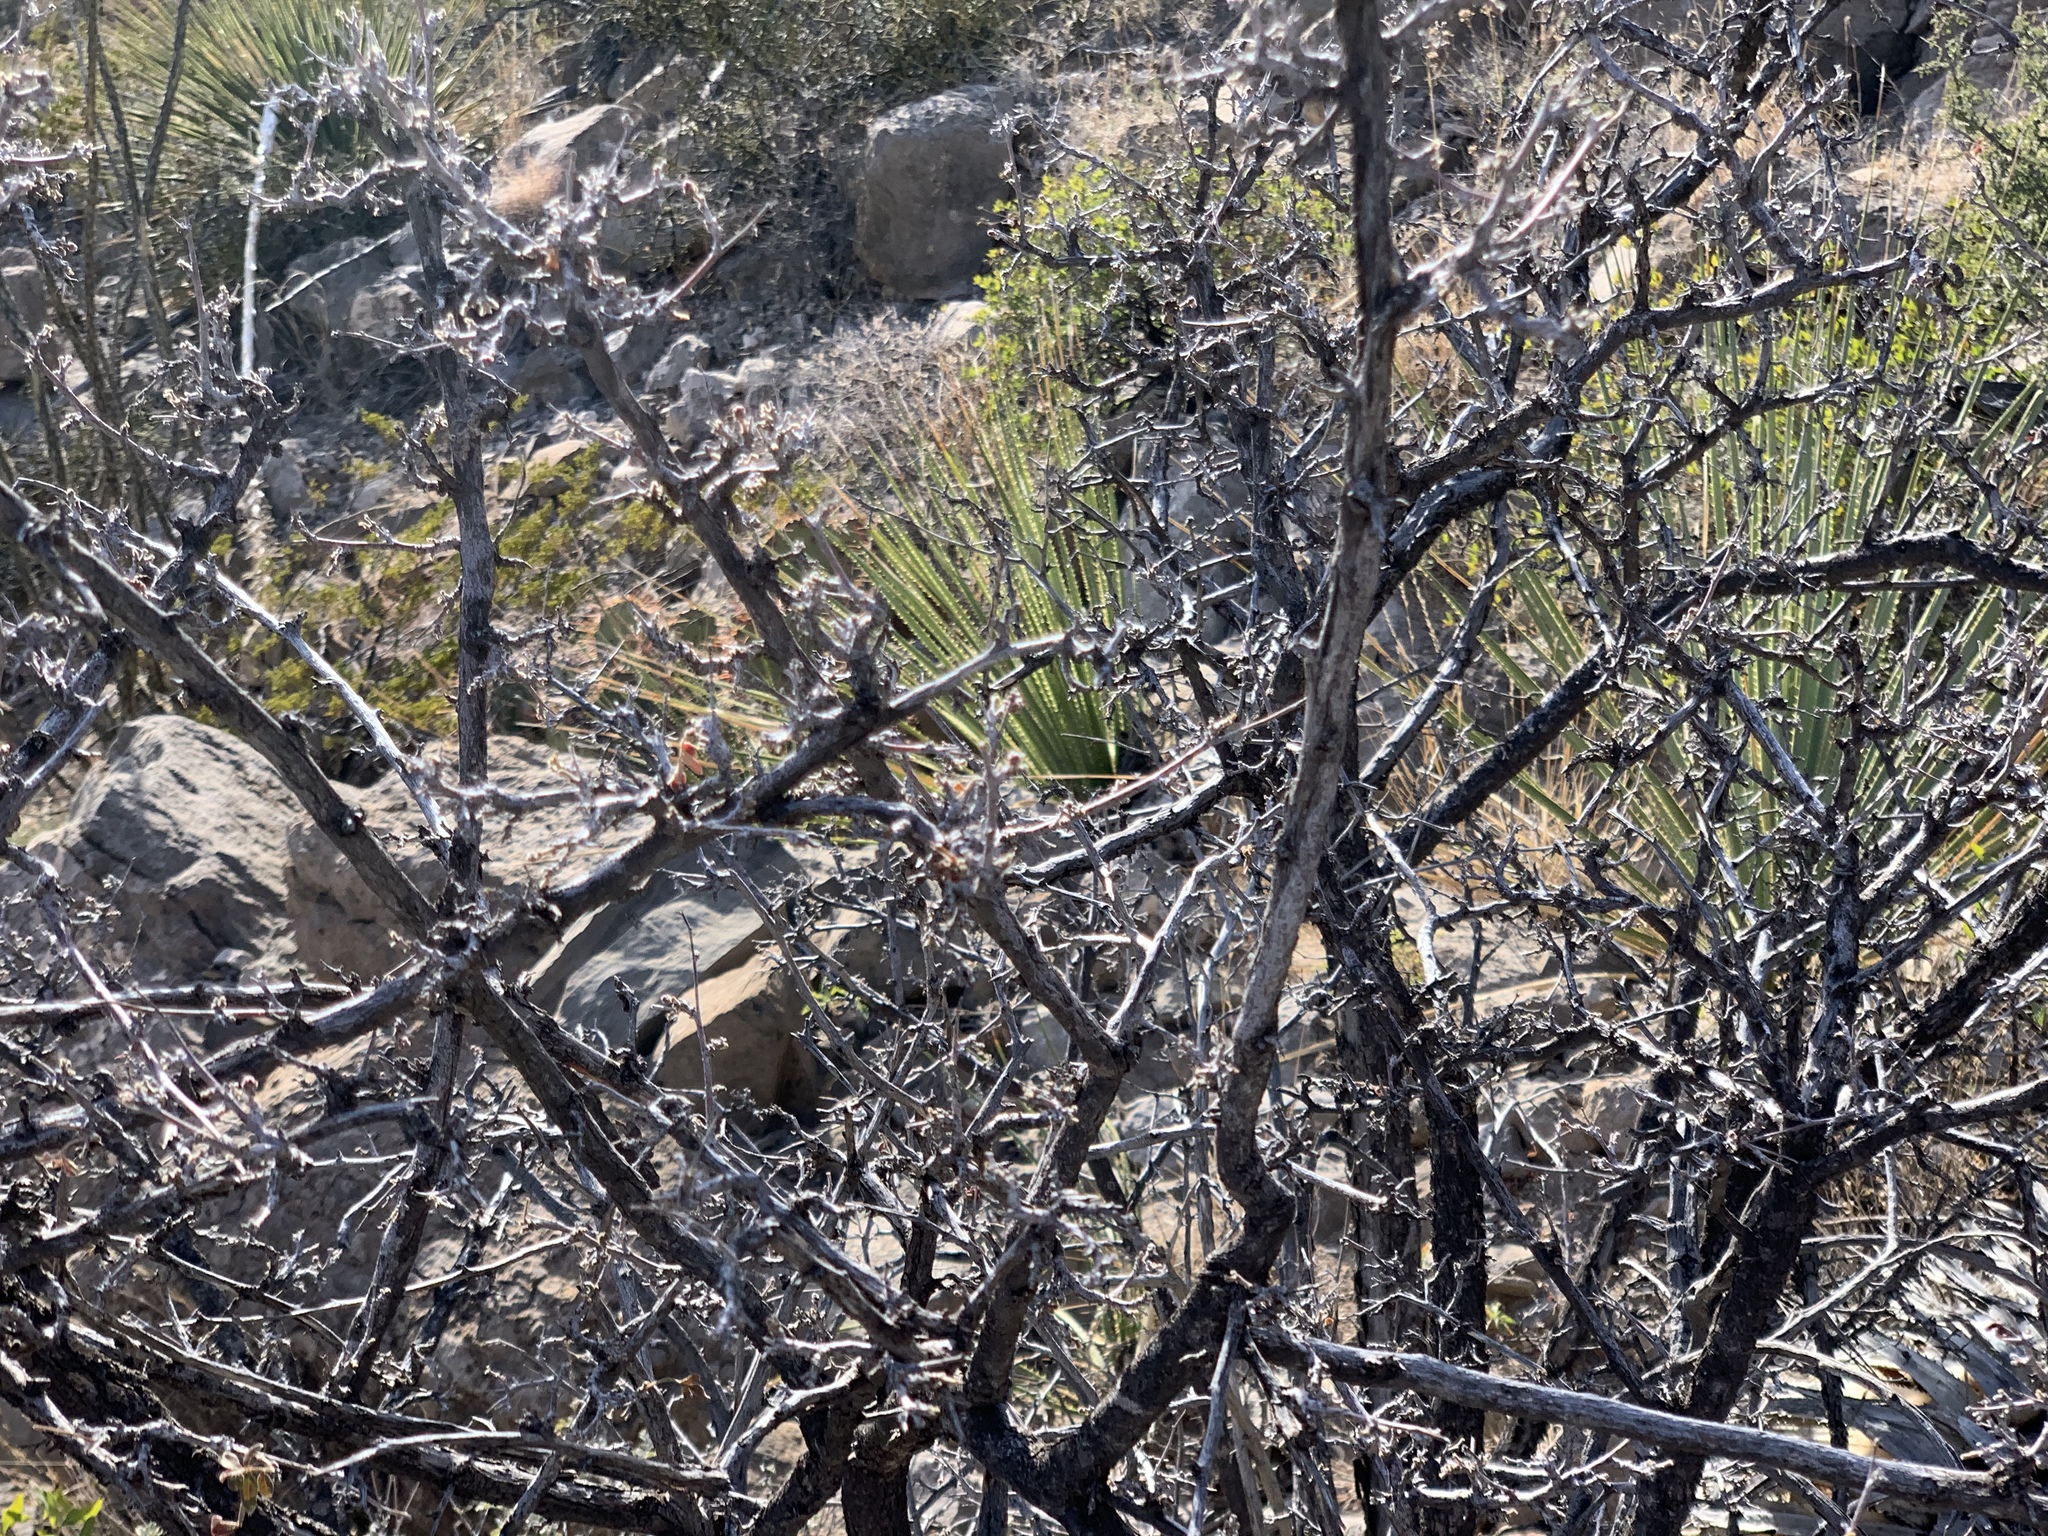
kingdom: Plantae
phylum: Tracheophyta
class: Magnoliopsida
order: Sapindales
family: Anacardiaceae
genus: Rhus
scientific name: Rhus microphylla
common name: Desert sumac
